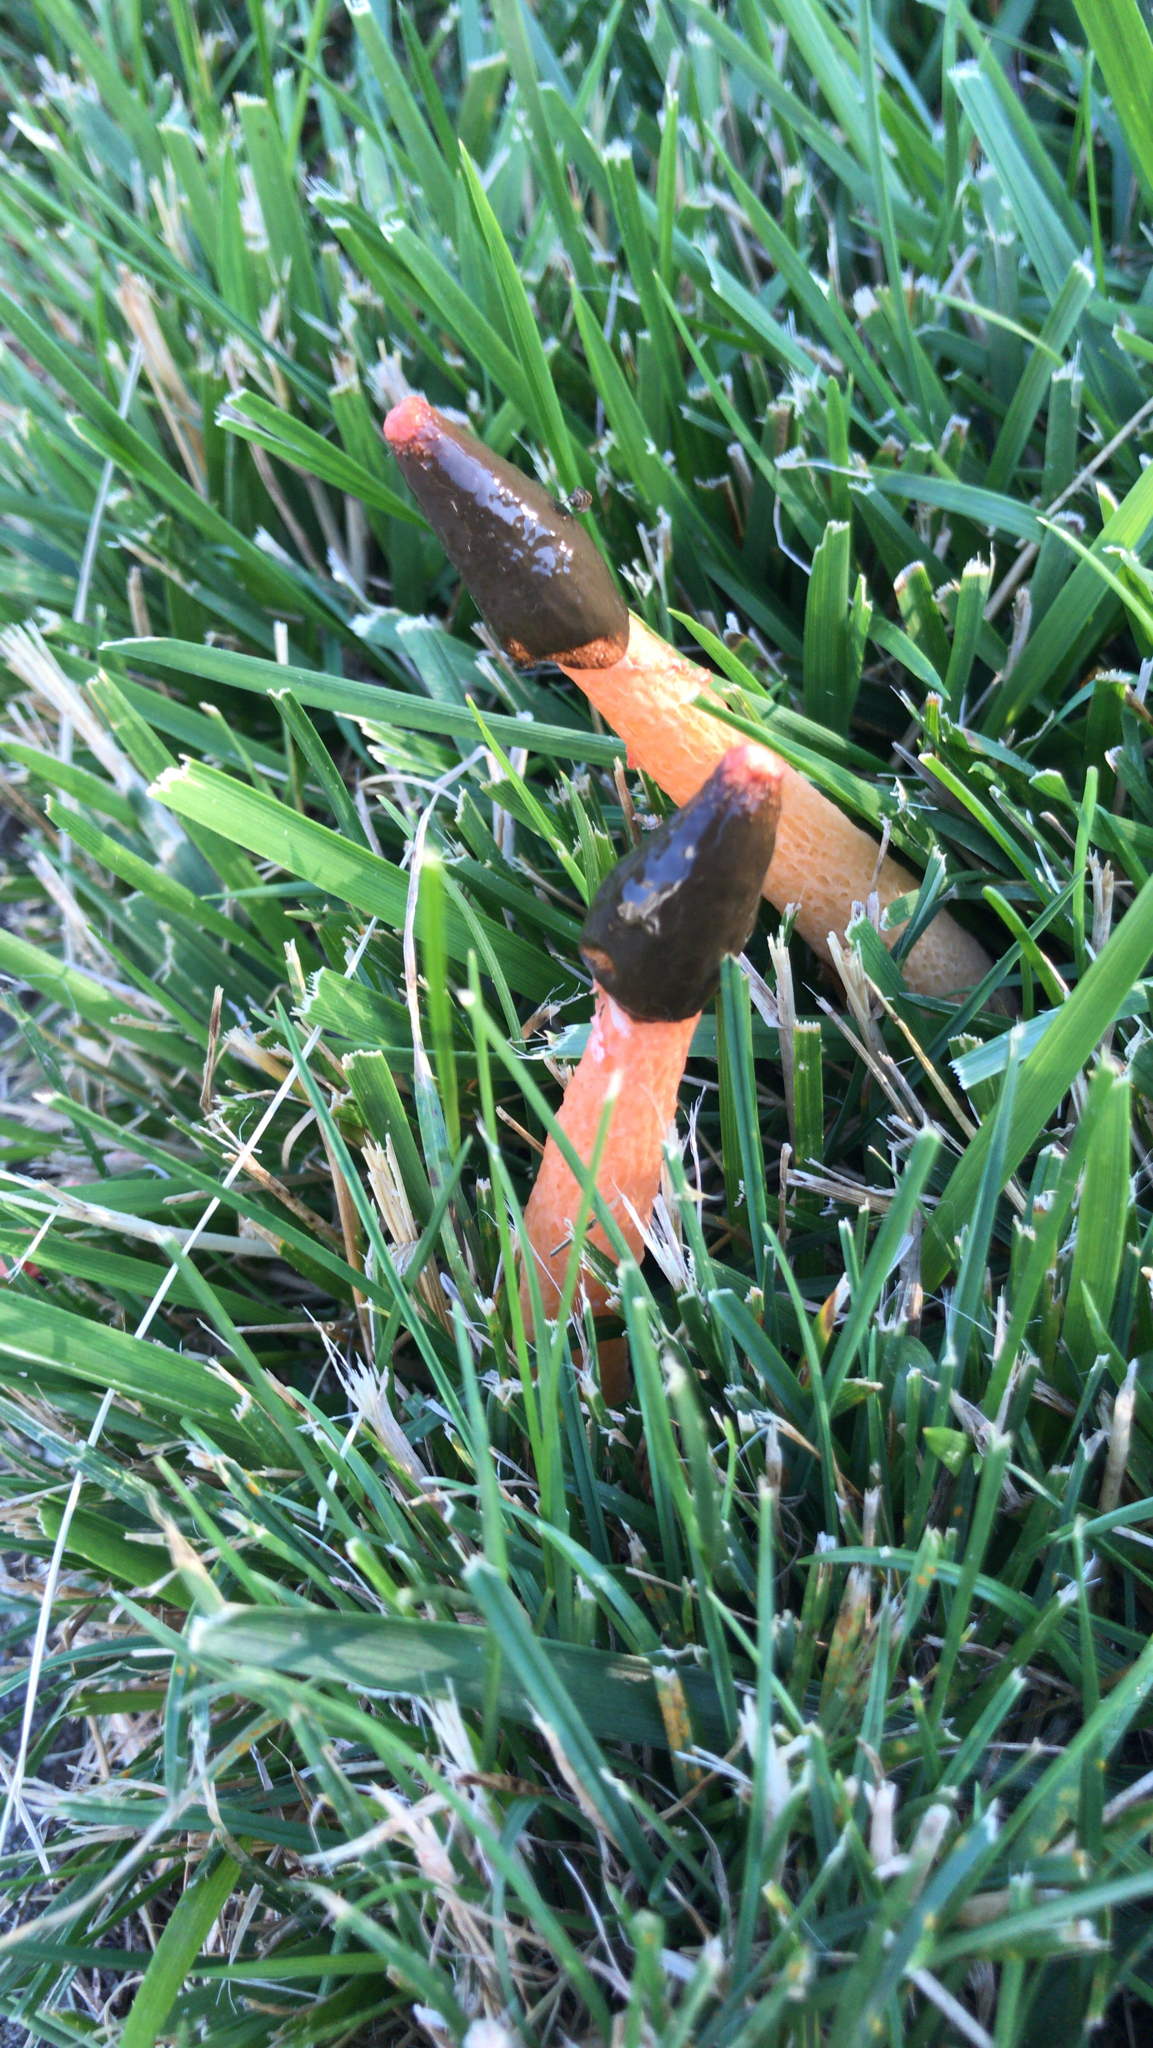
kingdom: Fungi
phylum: Basidiomycota
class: Agaricomycetes
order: Phallales
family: Phallaceae
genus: Phallus
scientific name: Phallus rugulosus
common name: Wrinkly stinkhorn
